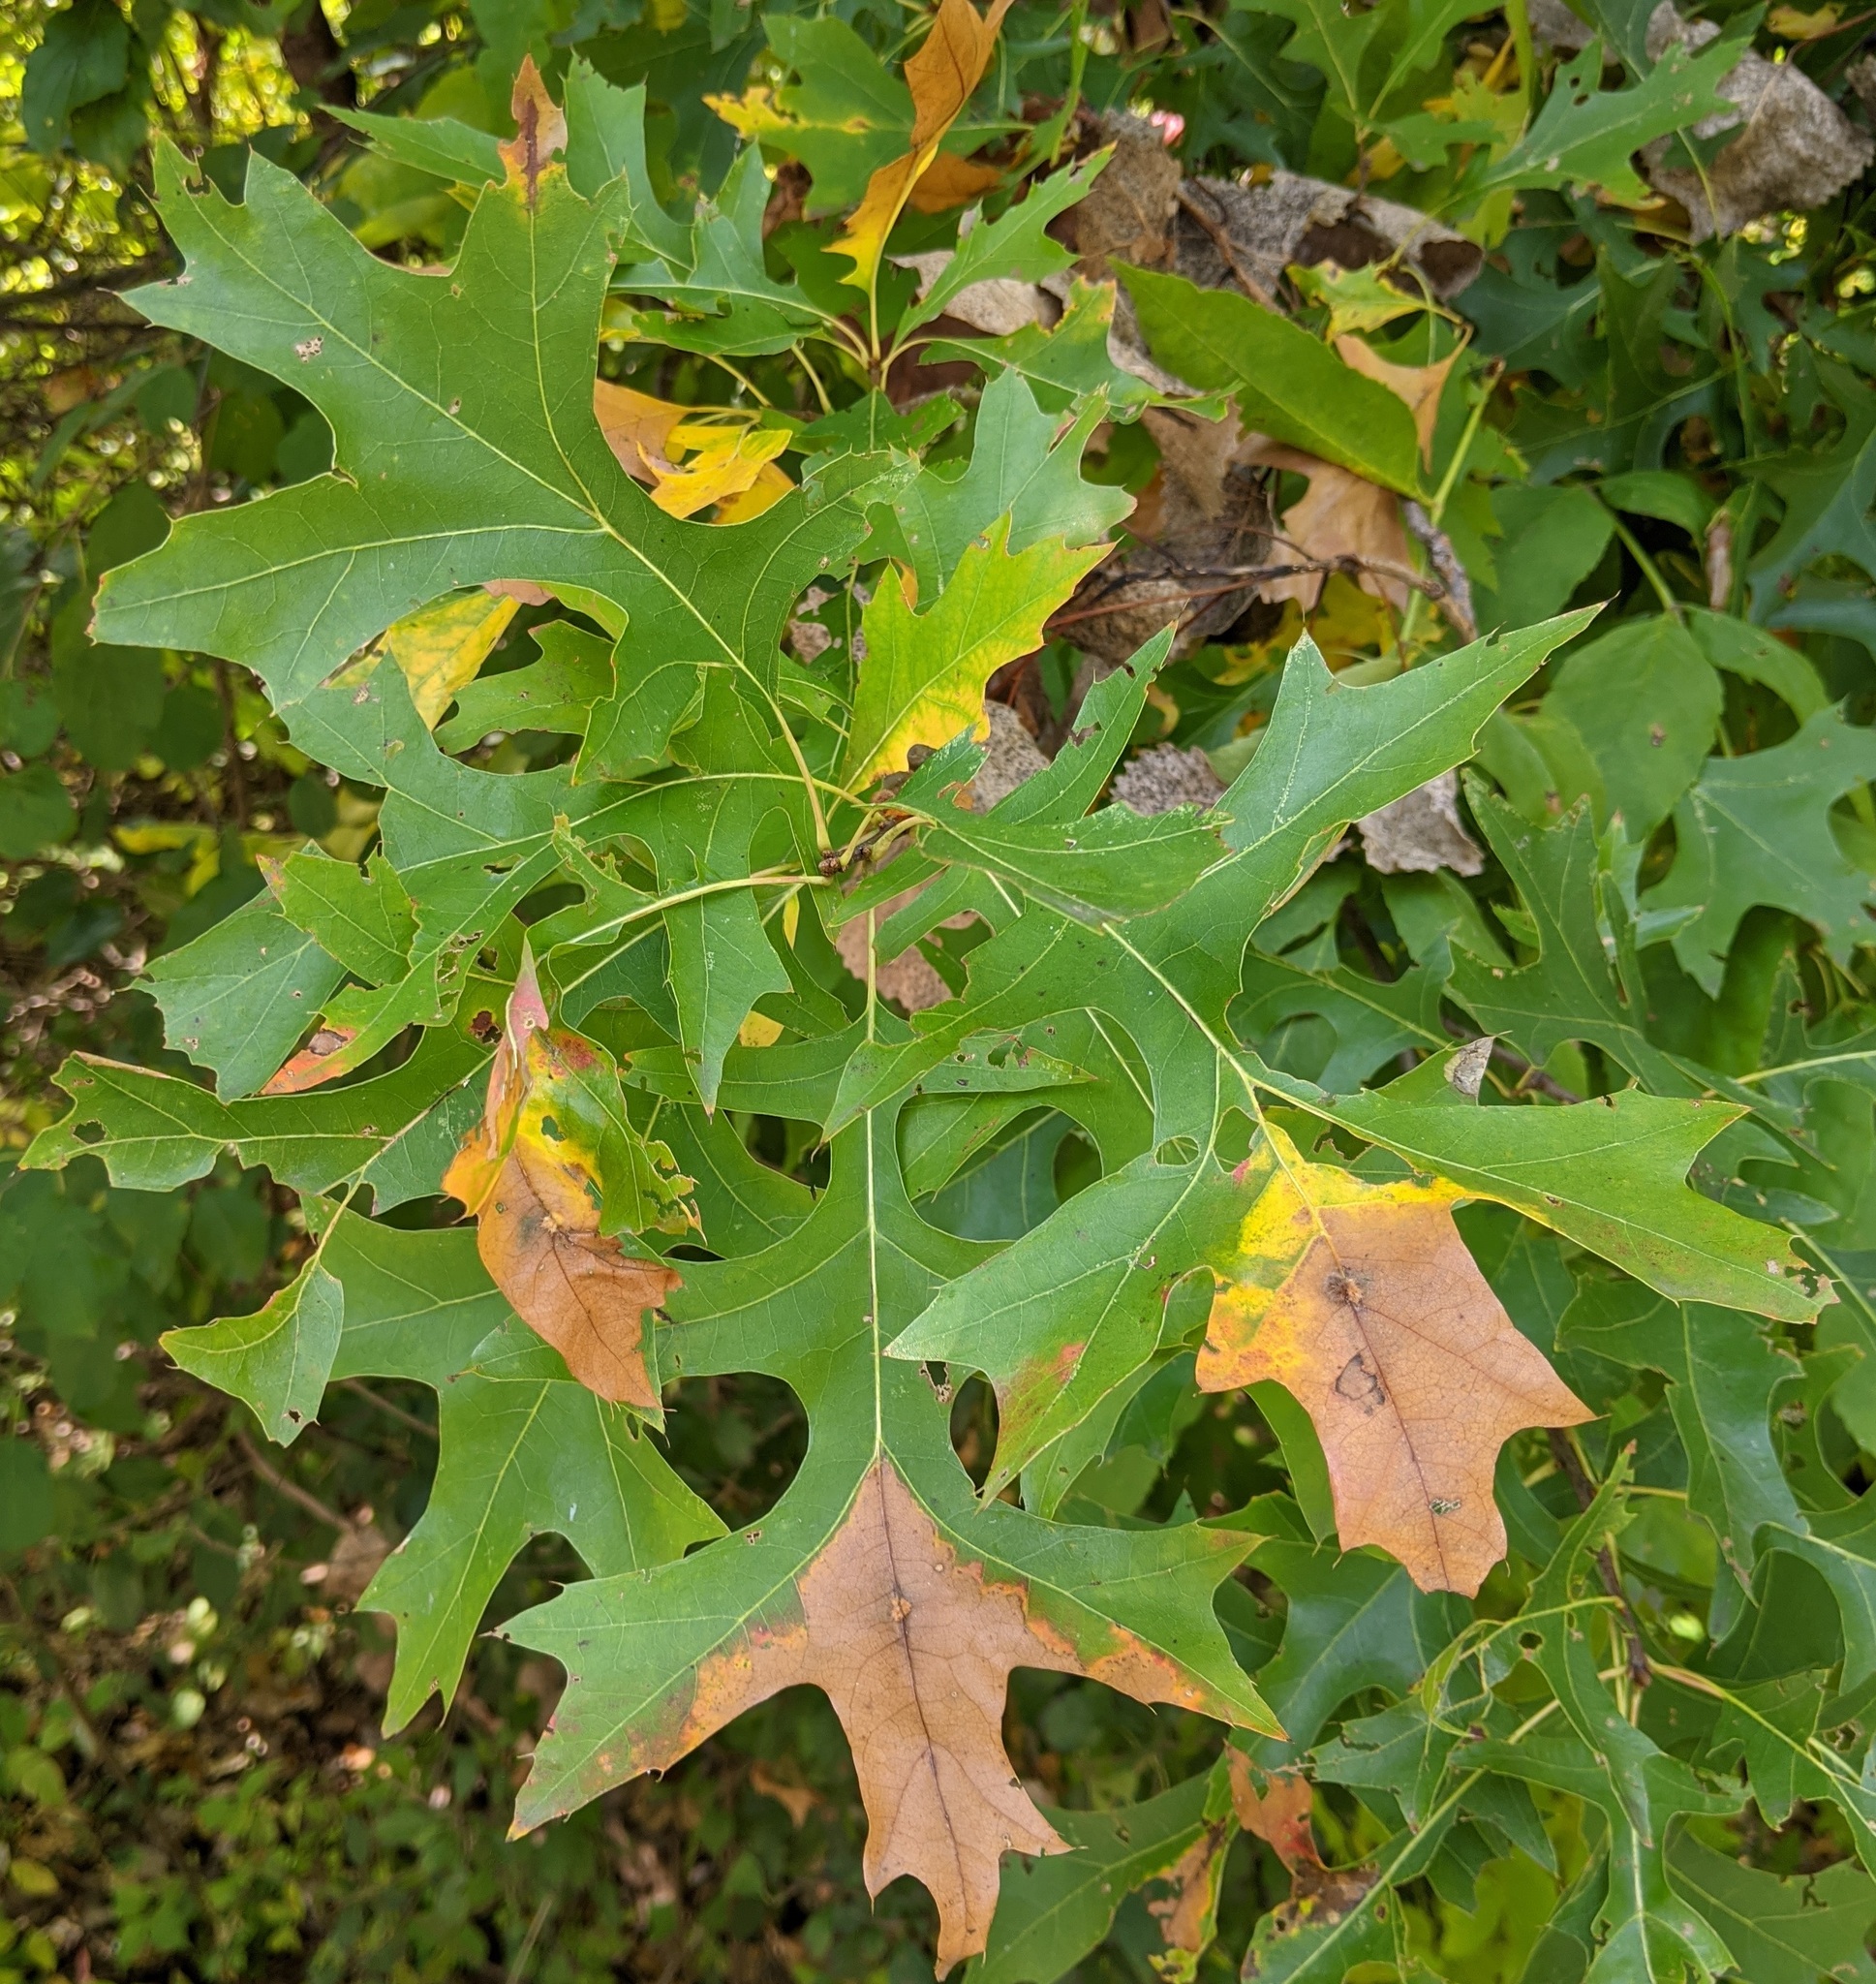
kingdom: Plantae
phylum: Tracheophyta
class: Magnoliopsida
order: Fagales
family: Fagaceae
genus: Quercus
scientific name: Quercus palustris
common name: Pin oak
